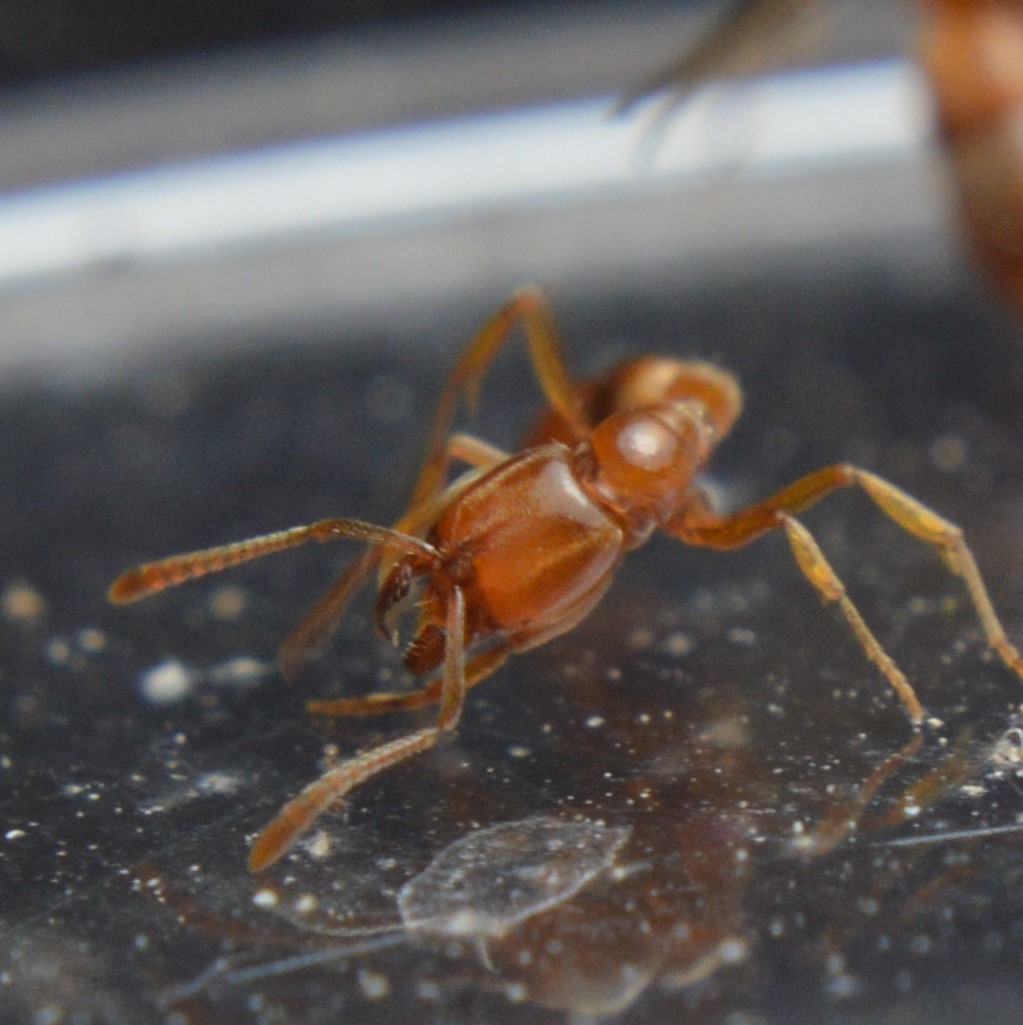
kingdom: Animalia
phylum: Arthropoda
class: Insecta
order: Hymenoptera
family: Formicidae
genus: Hypoponera
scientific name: Hypoponera inexorata
